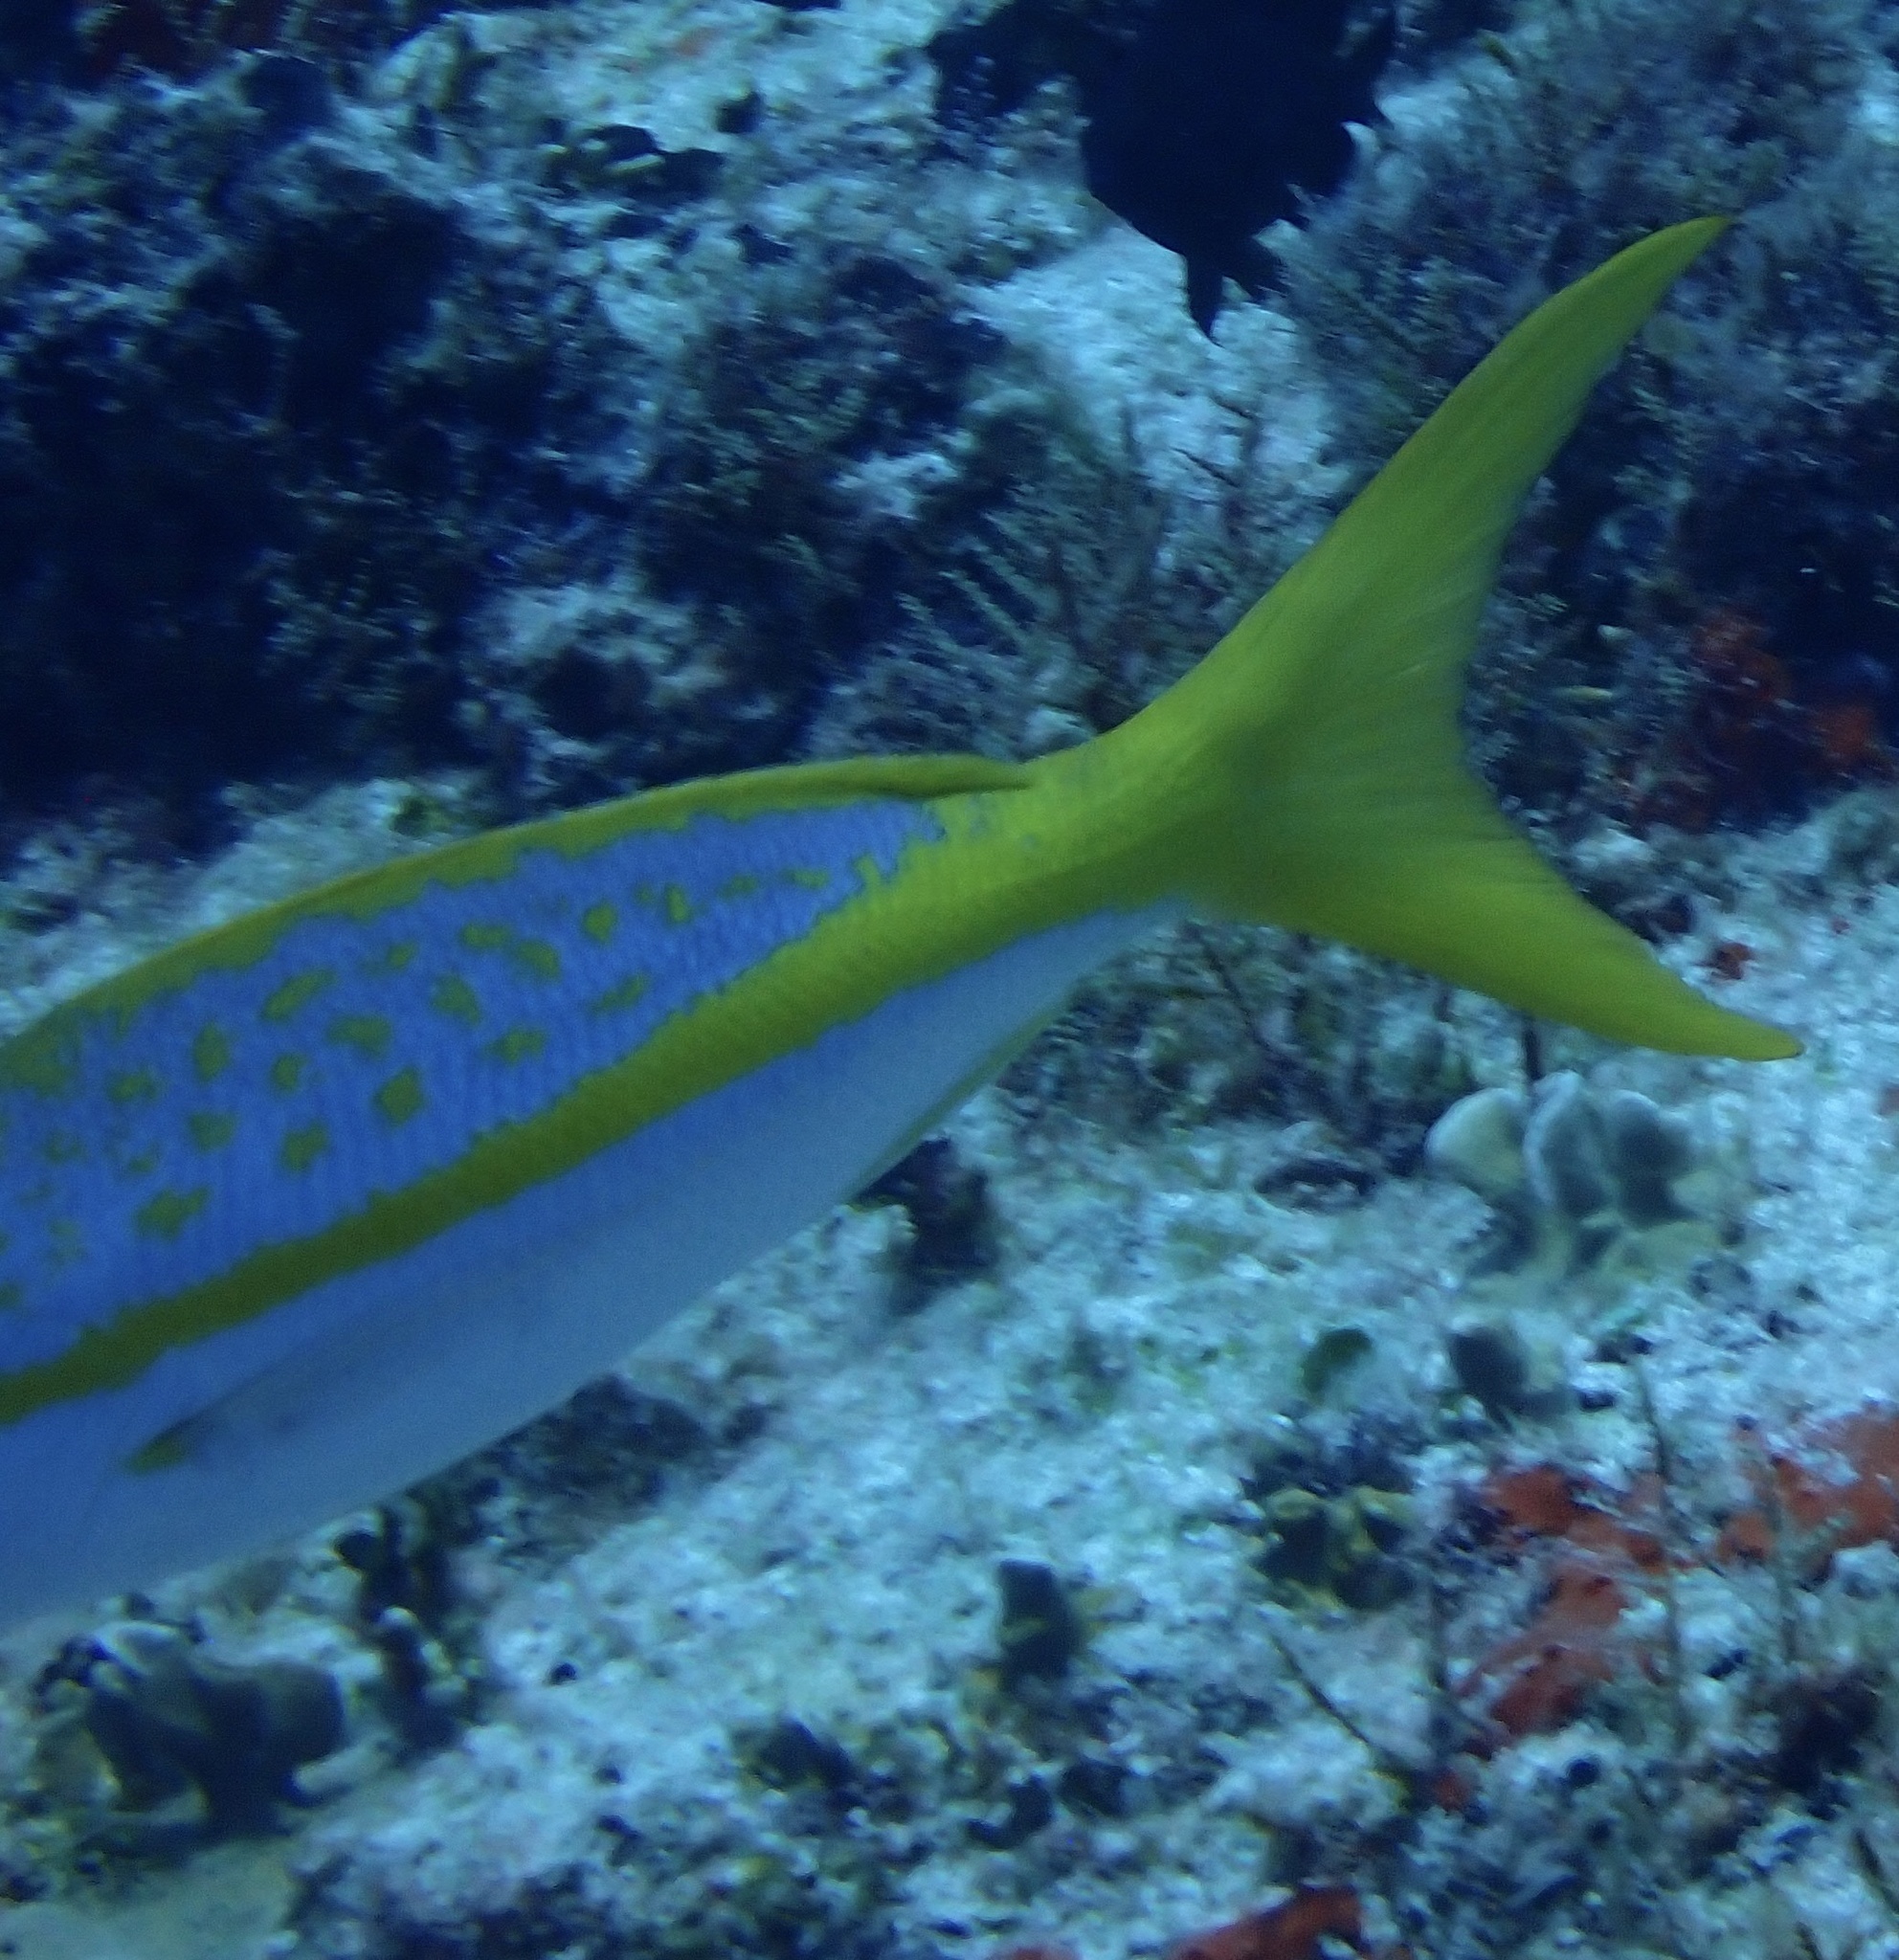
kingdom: Animalia
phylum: Chordata
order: Perciformes
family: Lutjanidae
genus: Ocyurus
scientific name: Ocyurus chrysurus
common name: Yellowtail snapper
